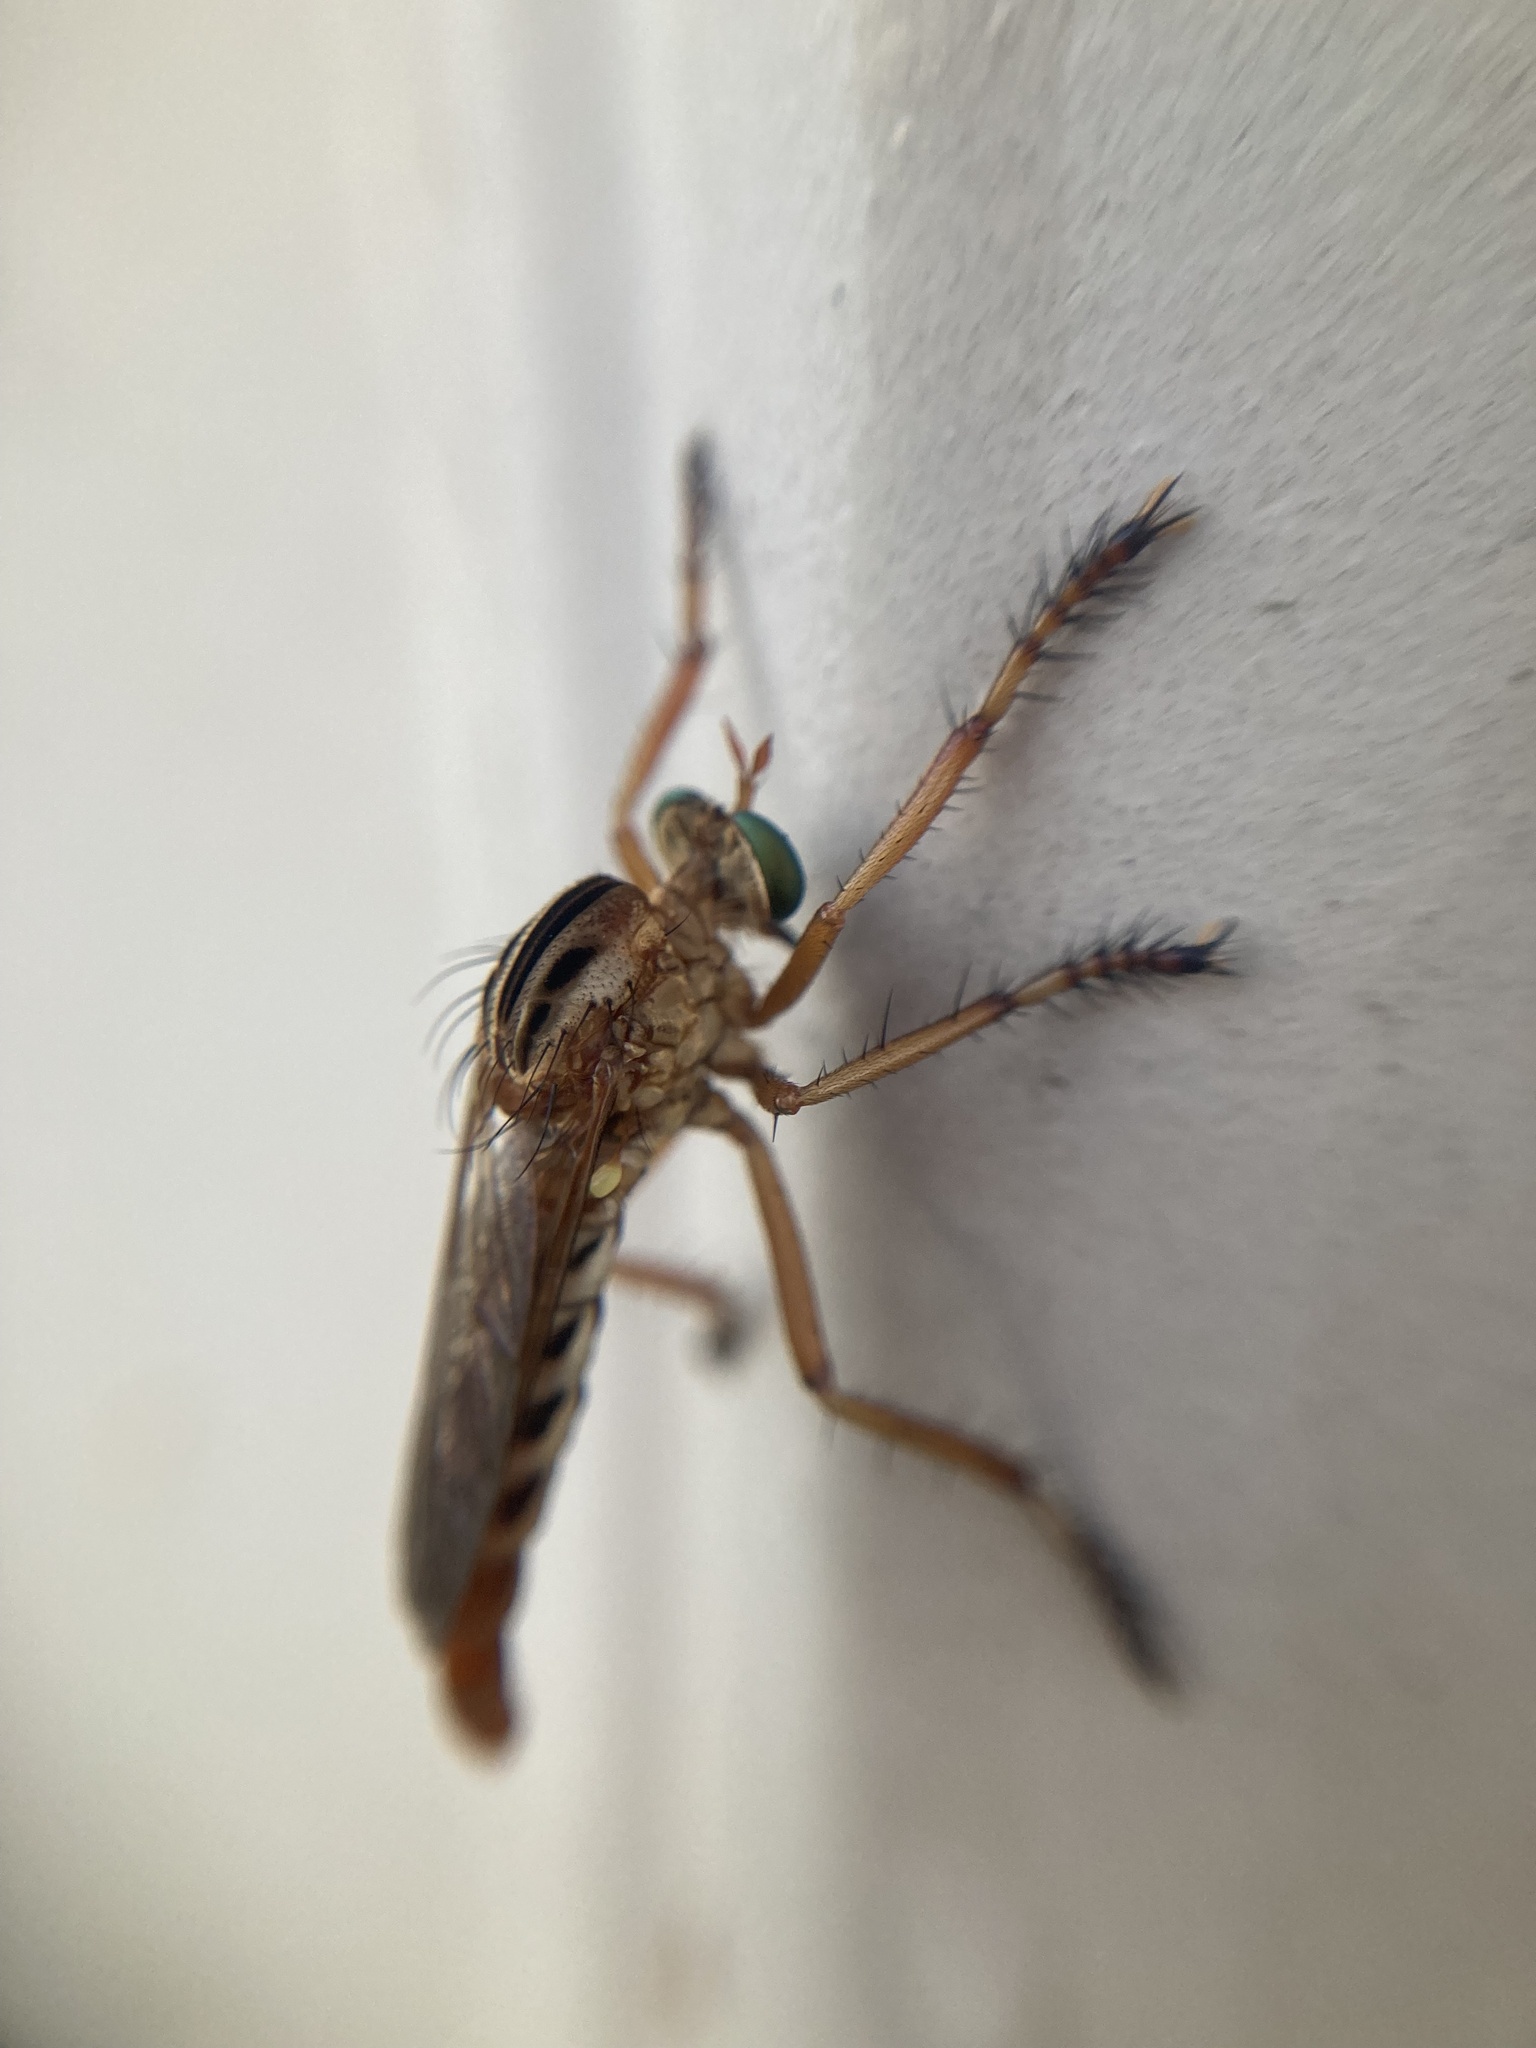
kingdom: Animalia
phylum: Arthropoda
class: Insecta
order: Diptera
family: Asilidae
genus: Diogmites
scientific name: Diogmites missouriensis
